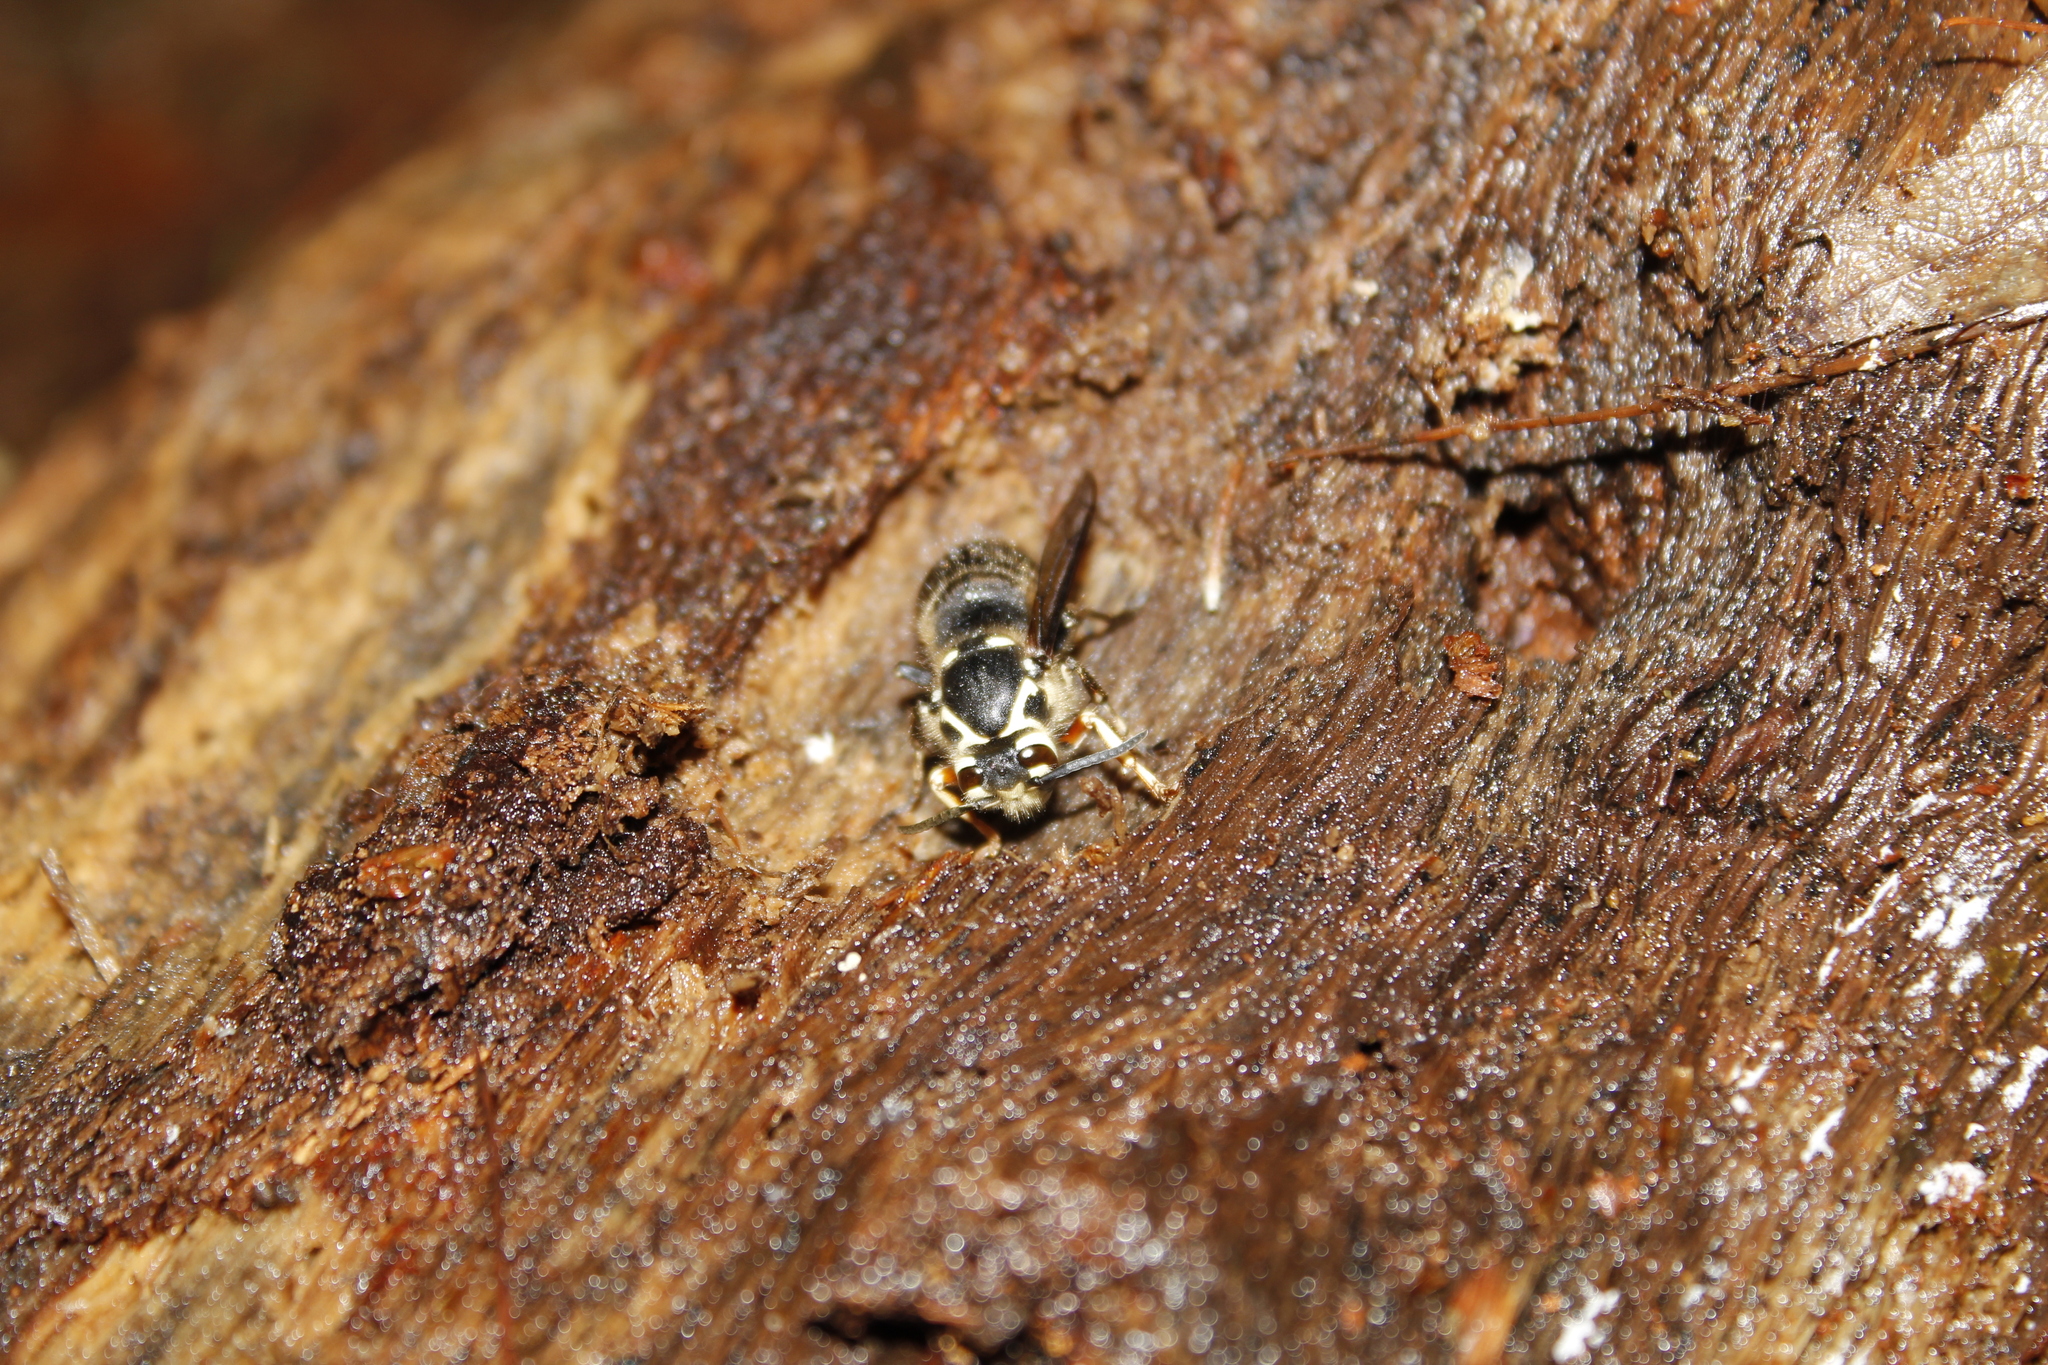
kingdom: Animalia
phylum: Arthropoda
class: Insecta
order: Hymenoptera
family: Vespidae
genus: Dolichovespula
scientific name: Dolichovespula maculata
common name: Bald-faced hornet
